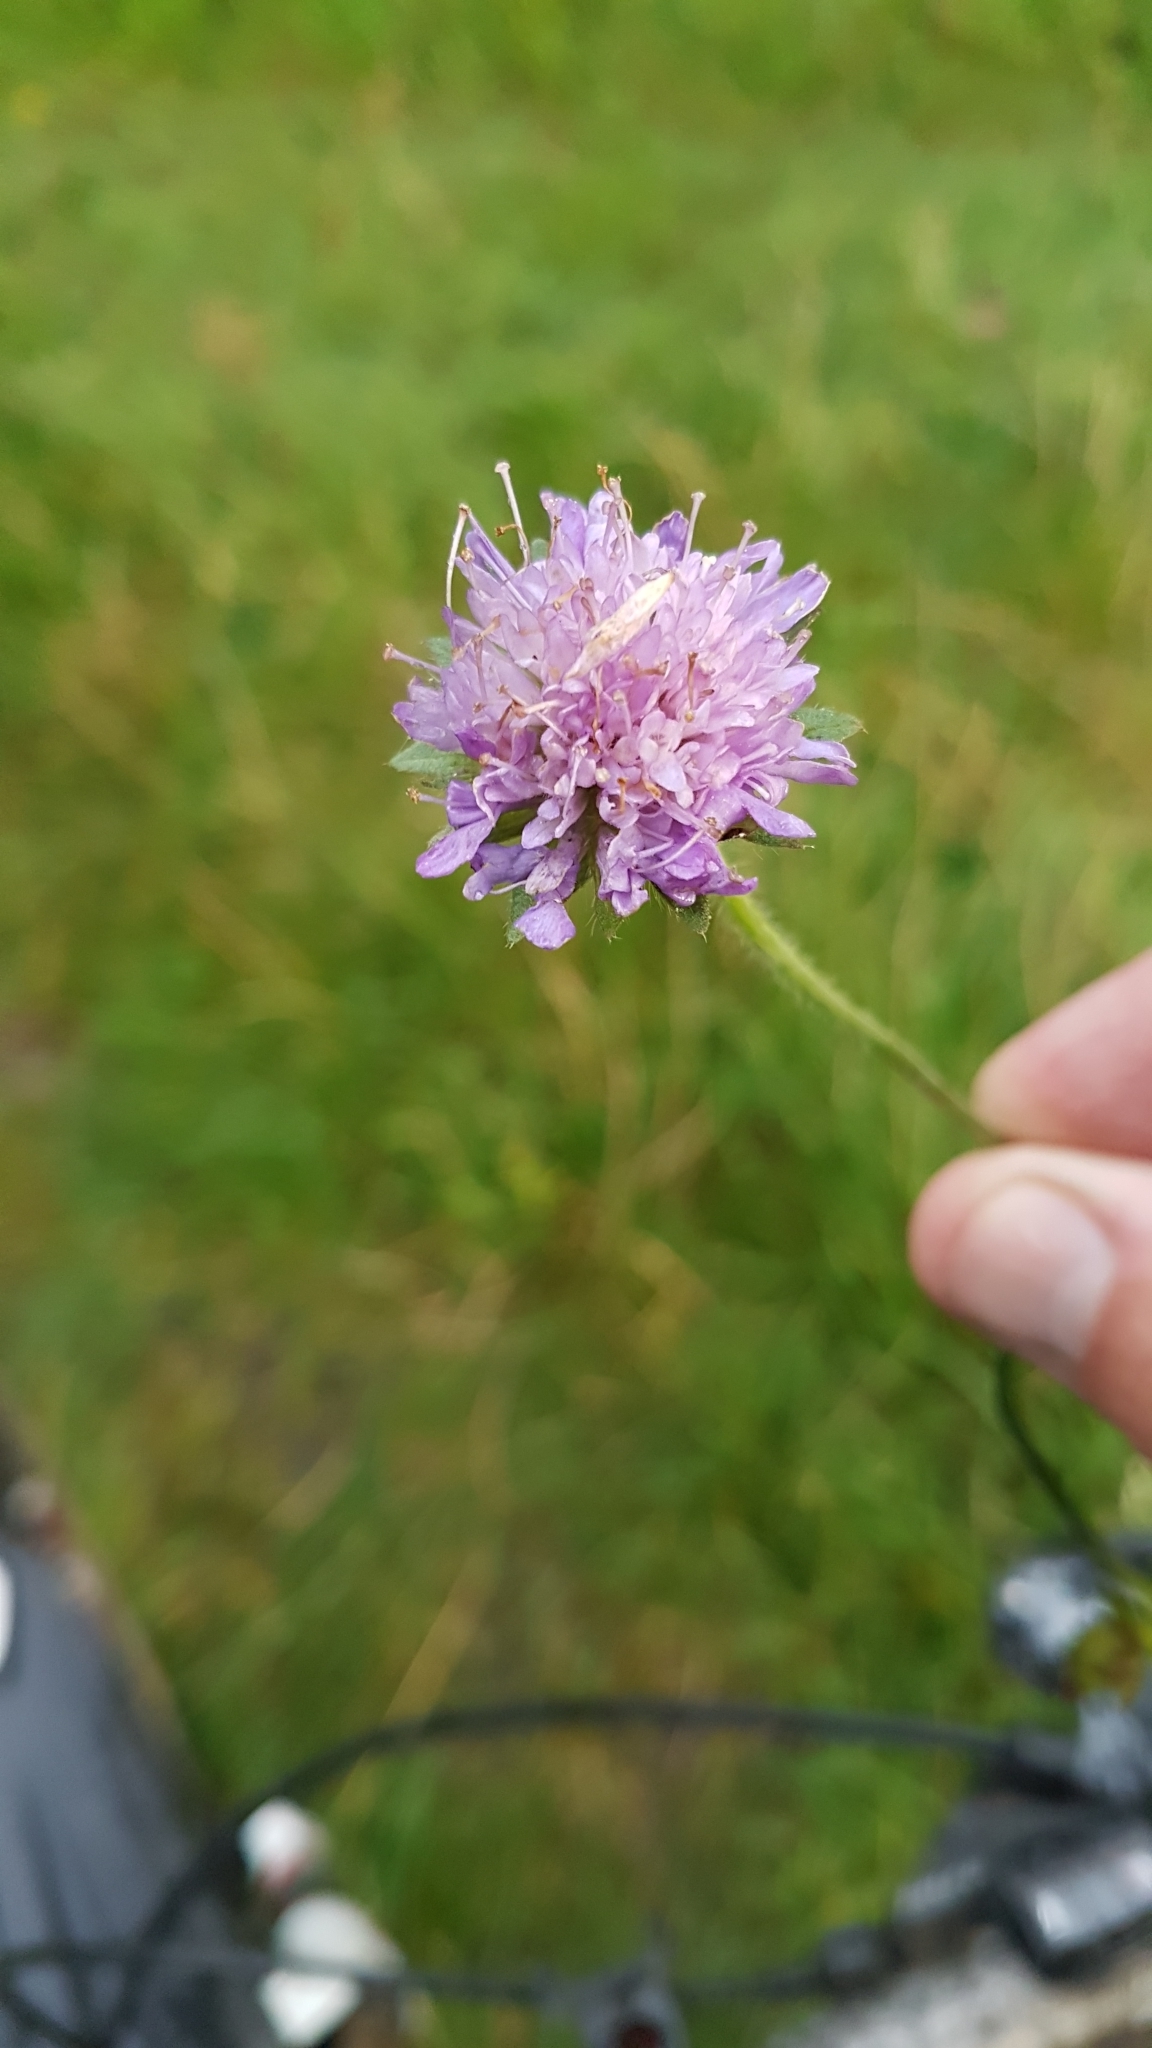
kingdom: Plantae
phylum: Tracheophyta
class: Magnoliopsida
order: Dipsacales
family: Caprifoliaceae
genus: Knautia
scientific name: Knautia arvensis
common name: Field scabiosa
